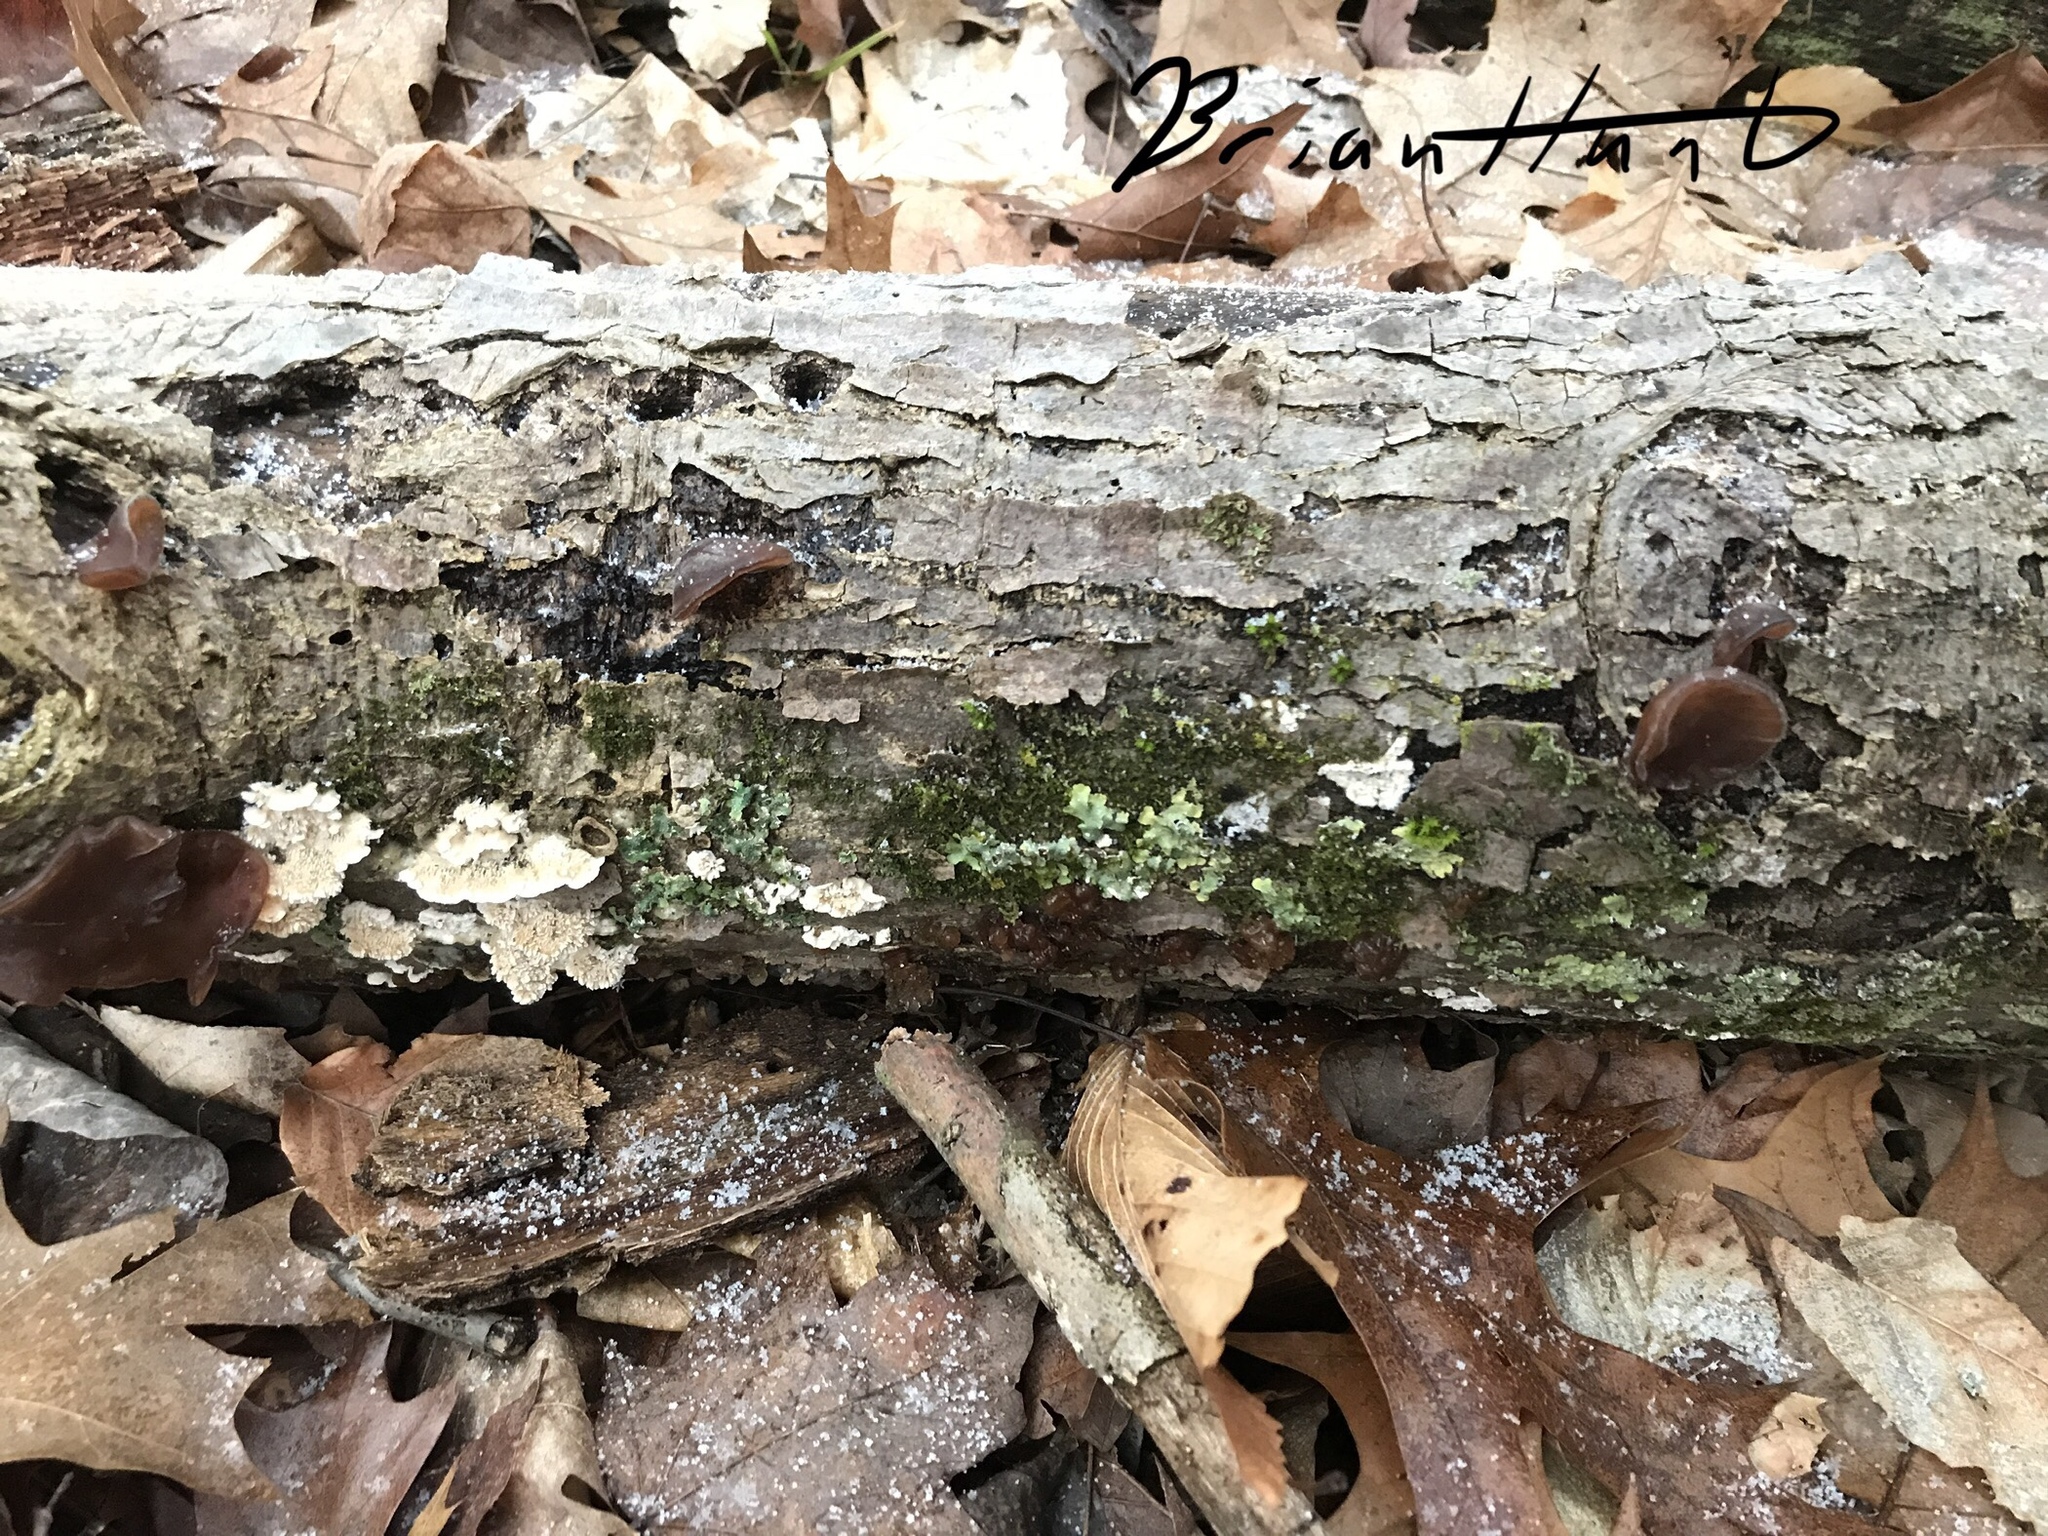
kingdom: Fungi
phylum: Basidiomycota
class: Agaricomycetes
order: Auriculariales
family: Auriculariaceae
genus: Auricularia
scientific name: Auricularia angiospermarum
